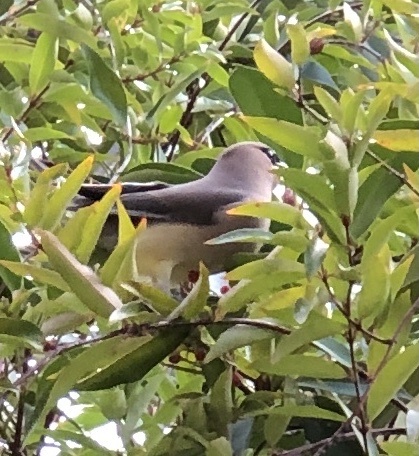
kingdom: Animalia
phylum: Chordata
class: Aves
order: Passeriformes
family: Bombycillidae
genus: Bombycilla
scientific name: Bombycilla cedrorum
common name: Cedar waxwing
